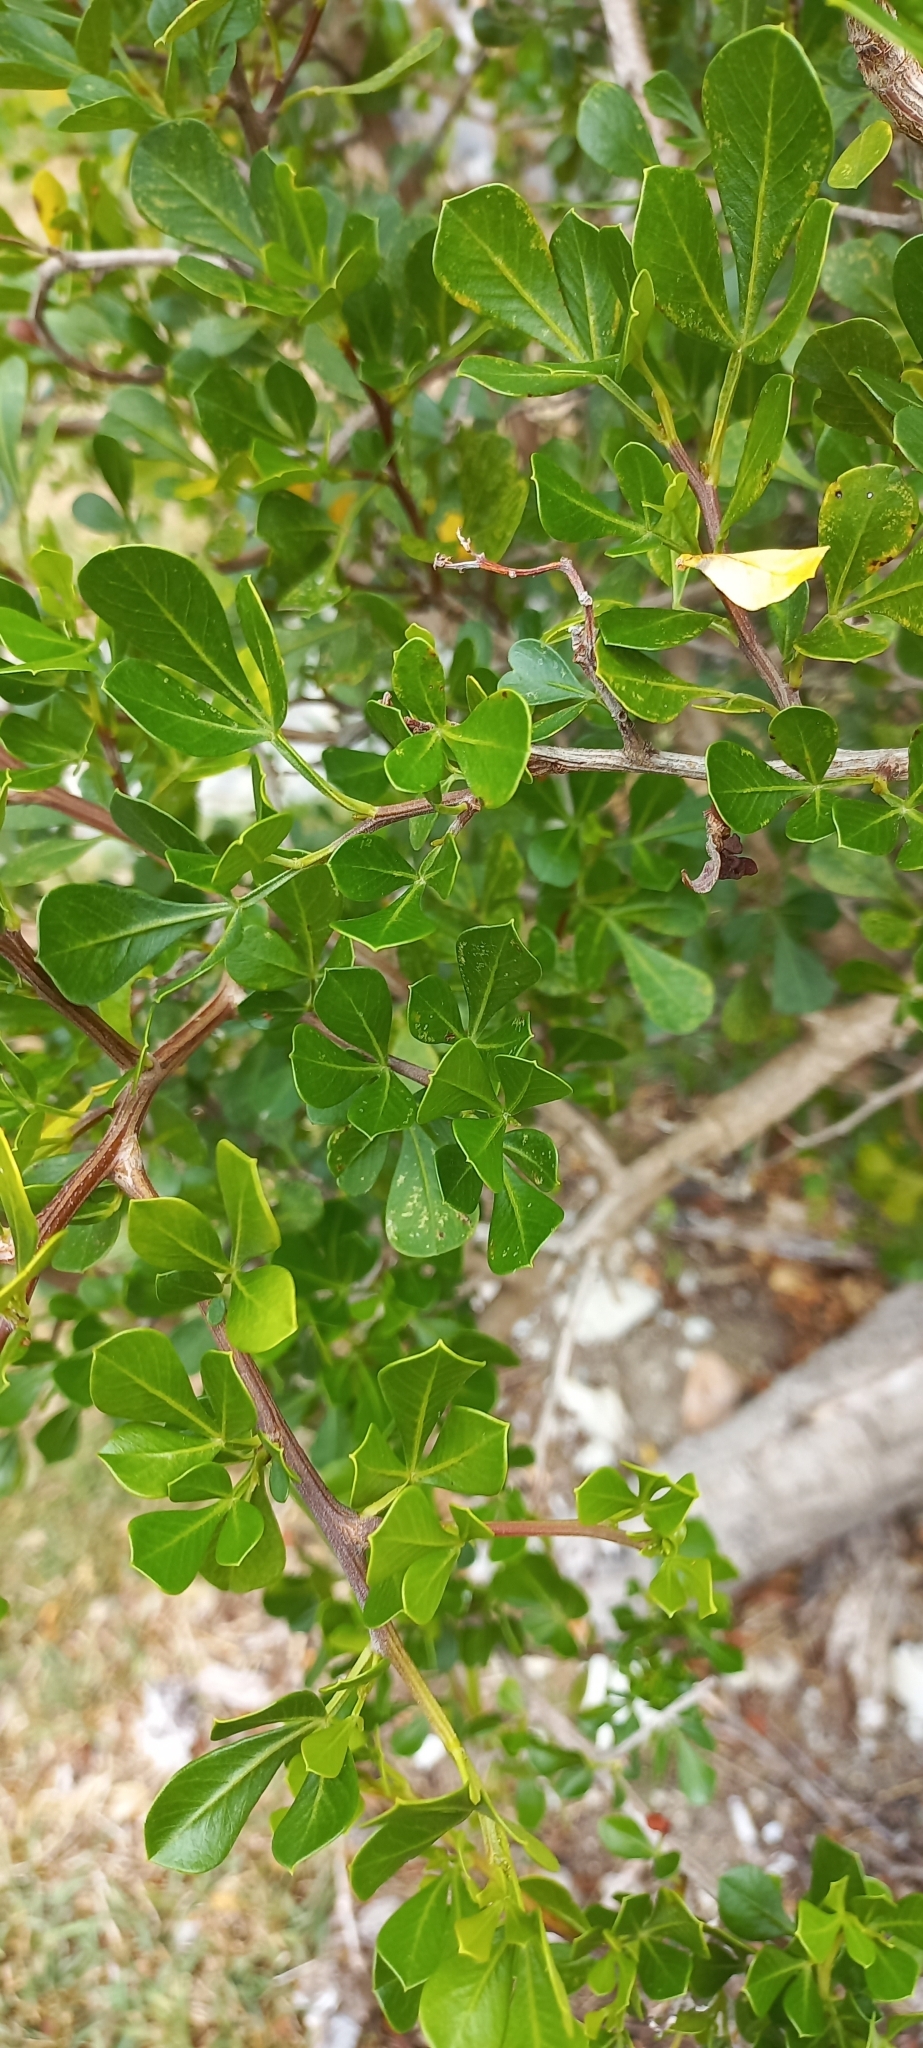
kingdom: Plantae
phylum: Tracheophyta
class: Magnoliopsida
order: Sapindales
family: Anacardiaceae
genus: Searsia
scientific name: Searsia glauca
